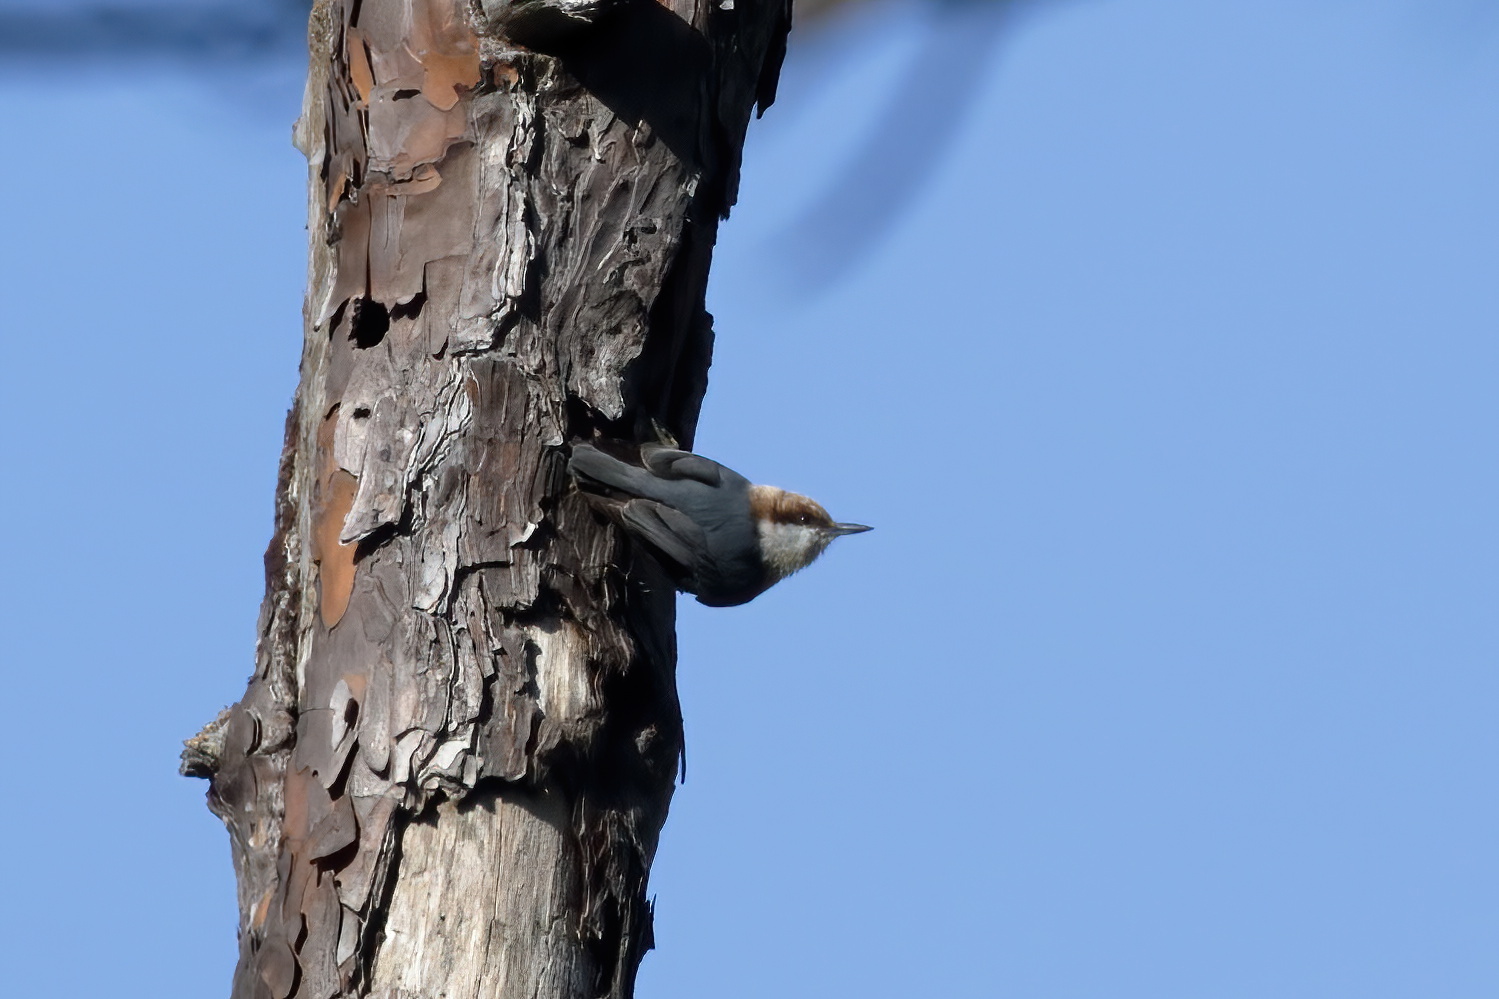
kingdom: Animalia
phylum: Chordata
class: Aves
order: Passeriformes
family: Sittidae
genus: Sitta
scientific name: Sitta pusilla
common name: Brown-headed nuthatch
